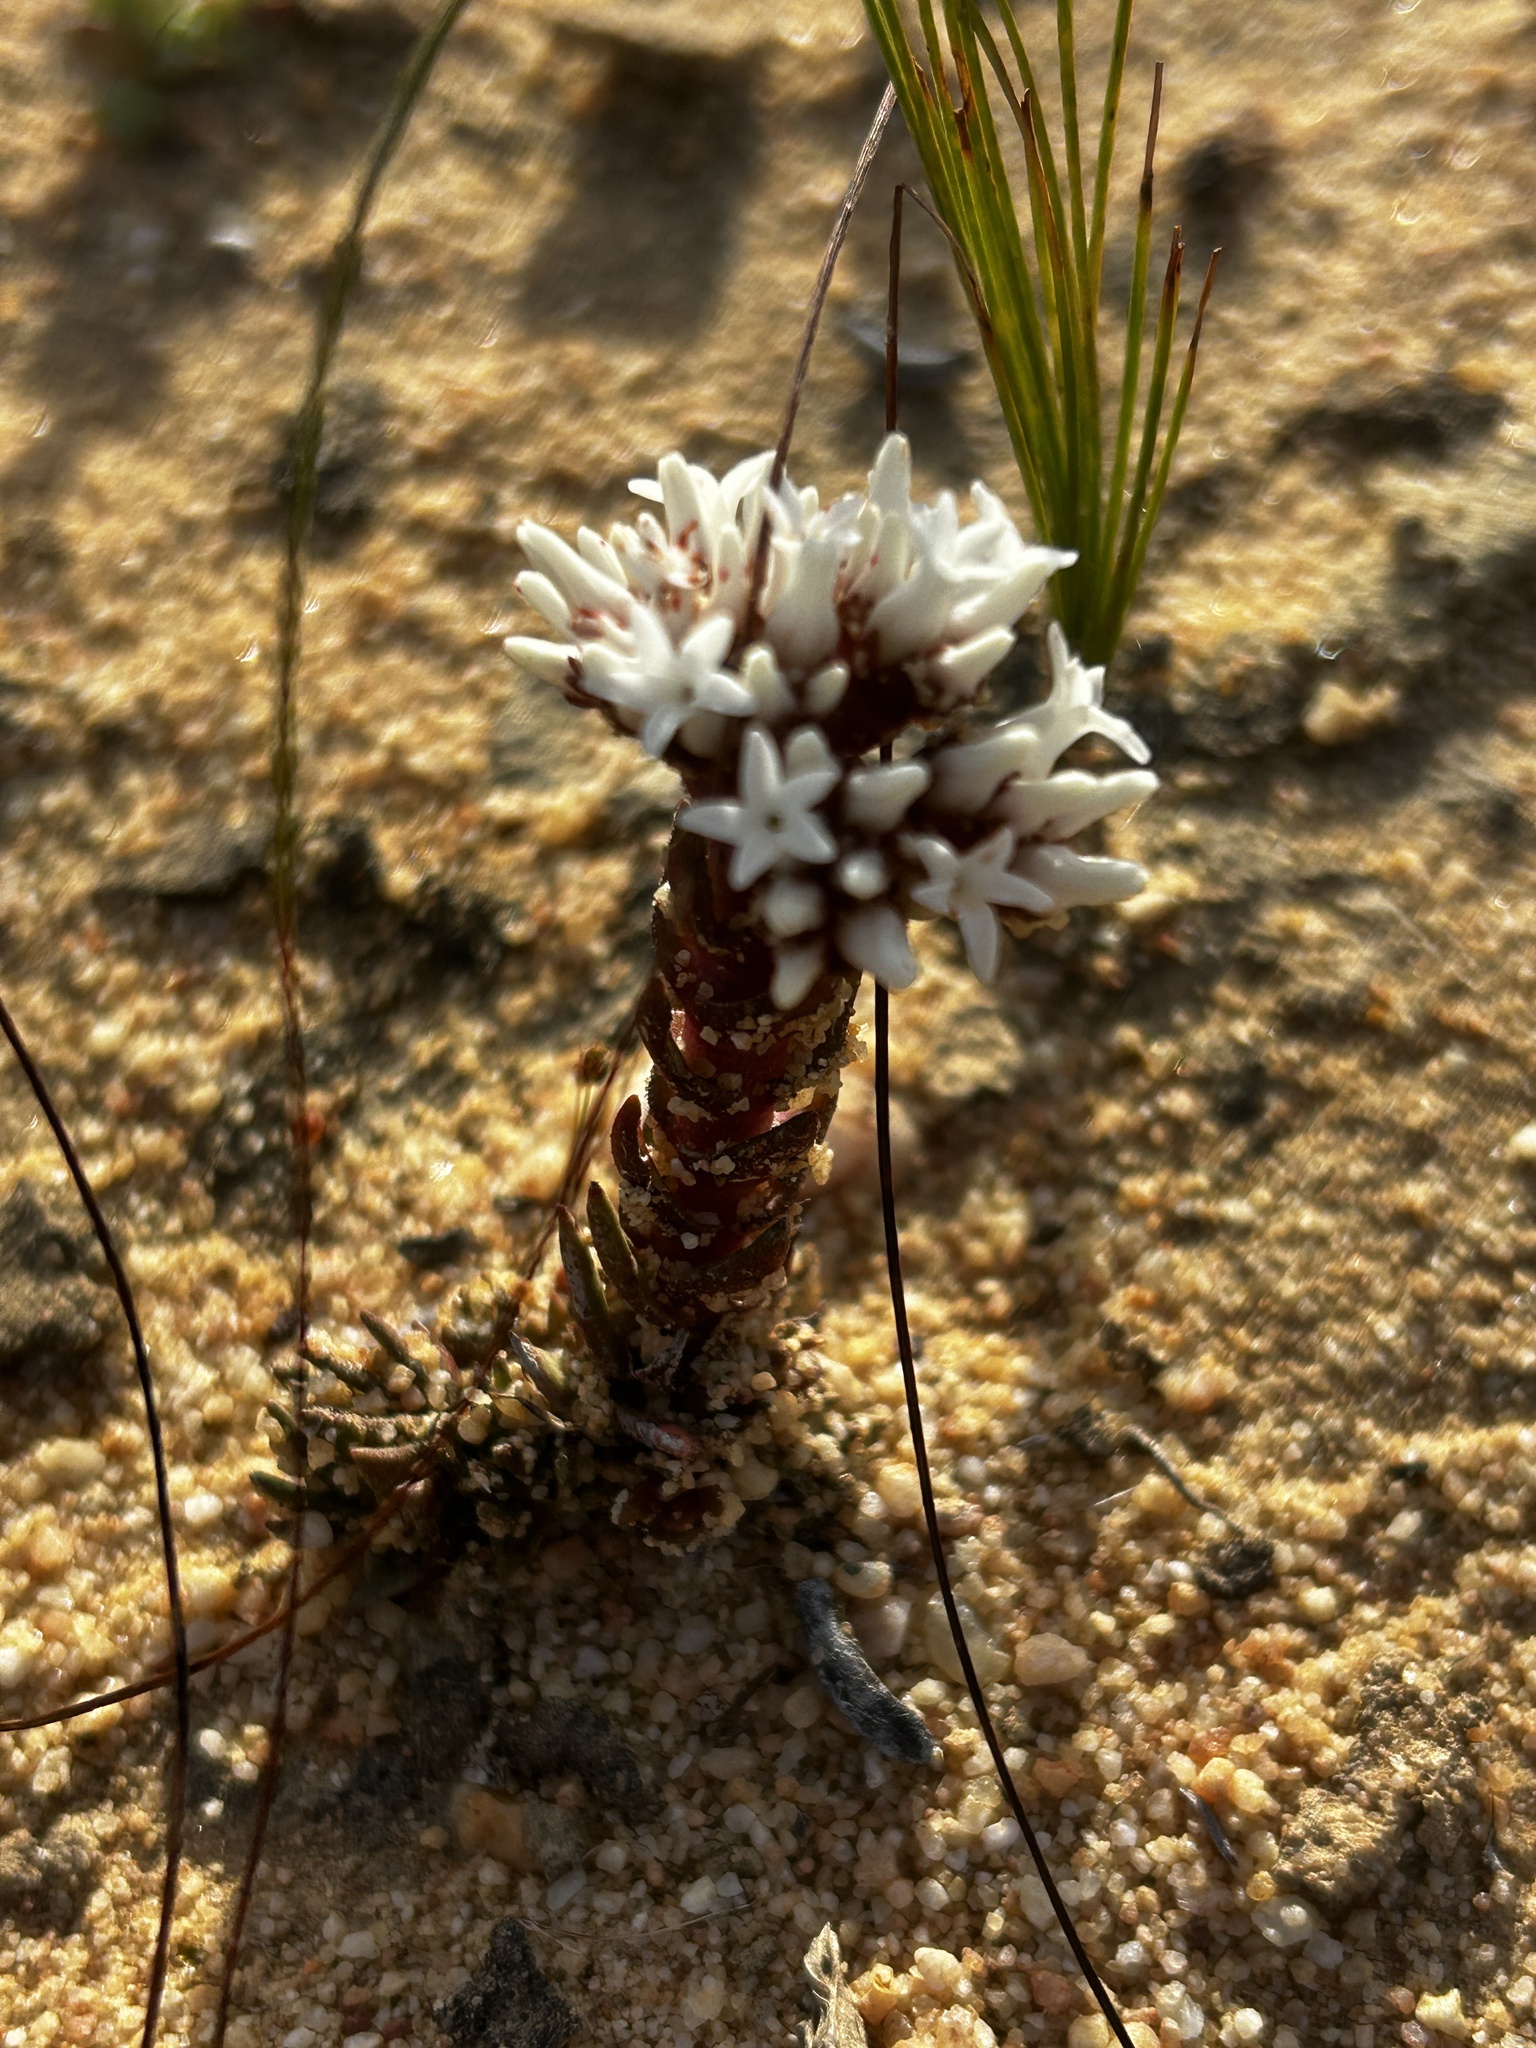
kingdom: Plantae
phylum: Tracheophyta
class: Magnoliopsida
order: Saxifragales
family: Crassulaceae
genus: Crassula
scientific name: Crassula alpestris
